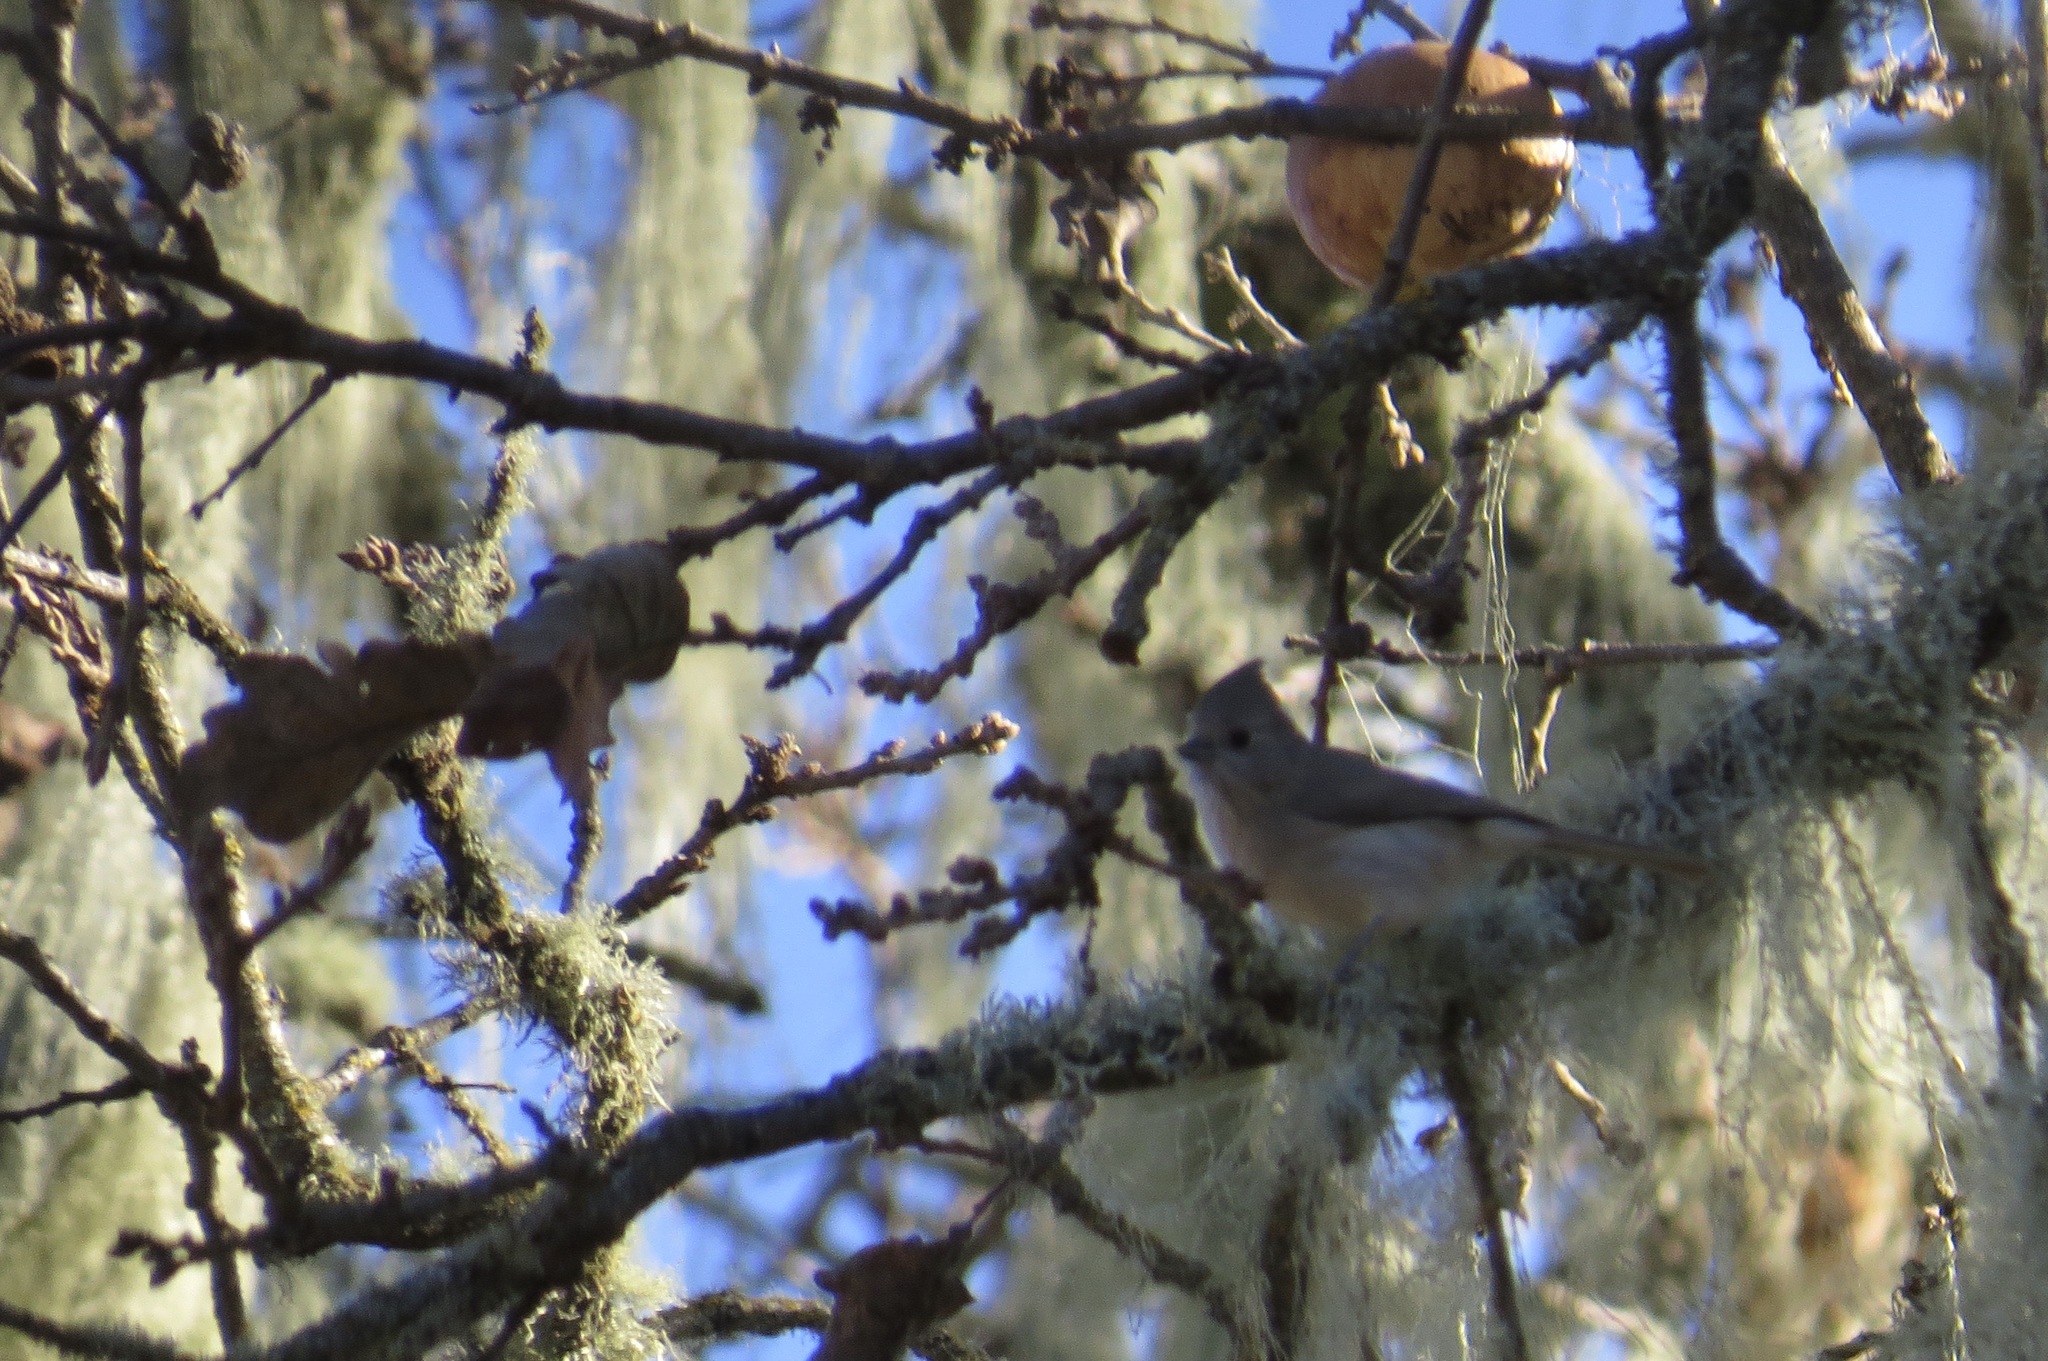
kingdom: Animalia
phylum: Chordata
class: Aves
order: Passeriformes
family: Paridae
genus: Baeolophus
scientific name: Baeolophus inornatus
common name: Oak titmouse
